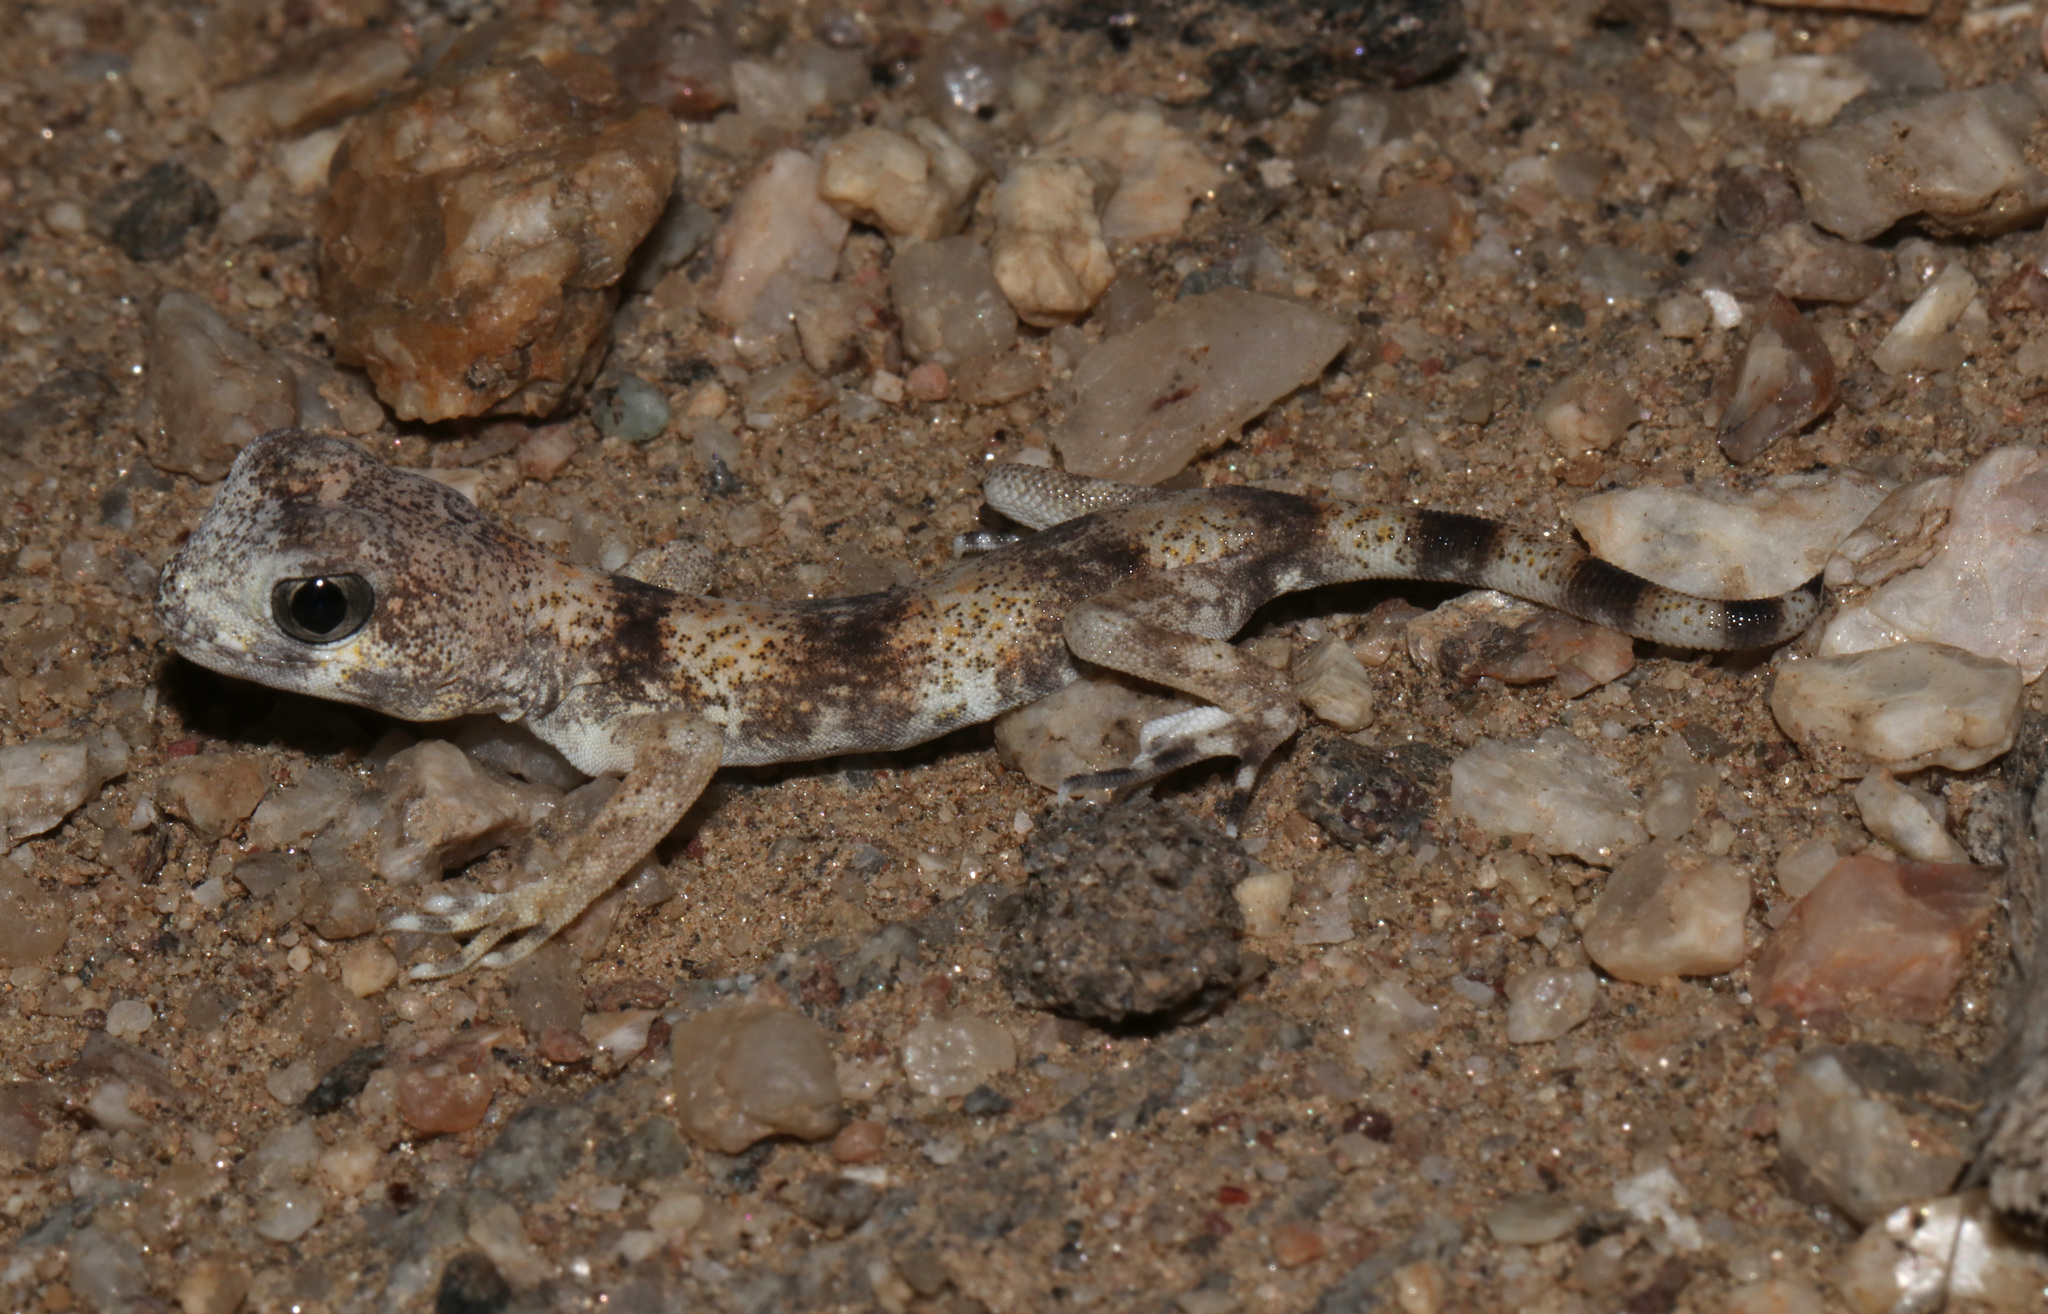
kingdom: Animalia
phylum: Chordata
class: Squamata
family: Gekkonidae
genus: Ptenopus
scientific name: Ptenopus carpi
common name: Namib chirping gecko
